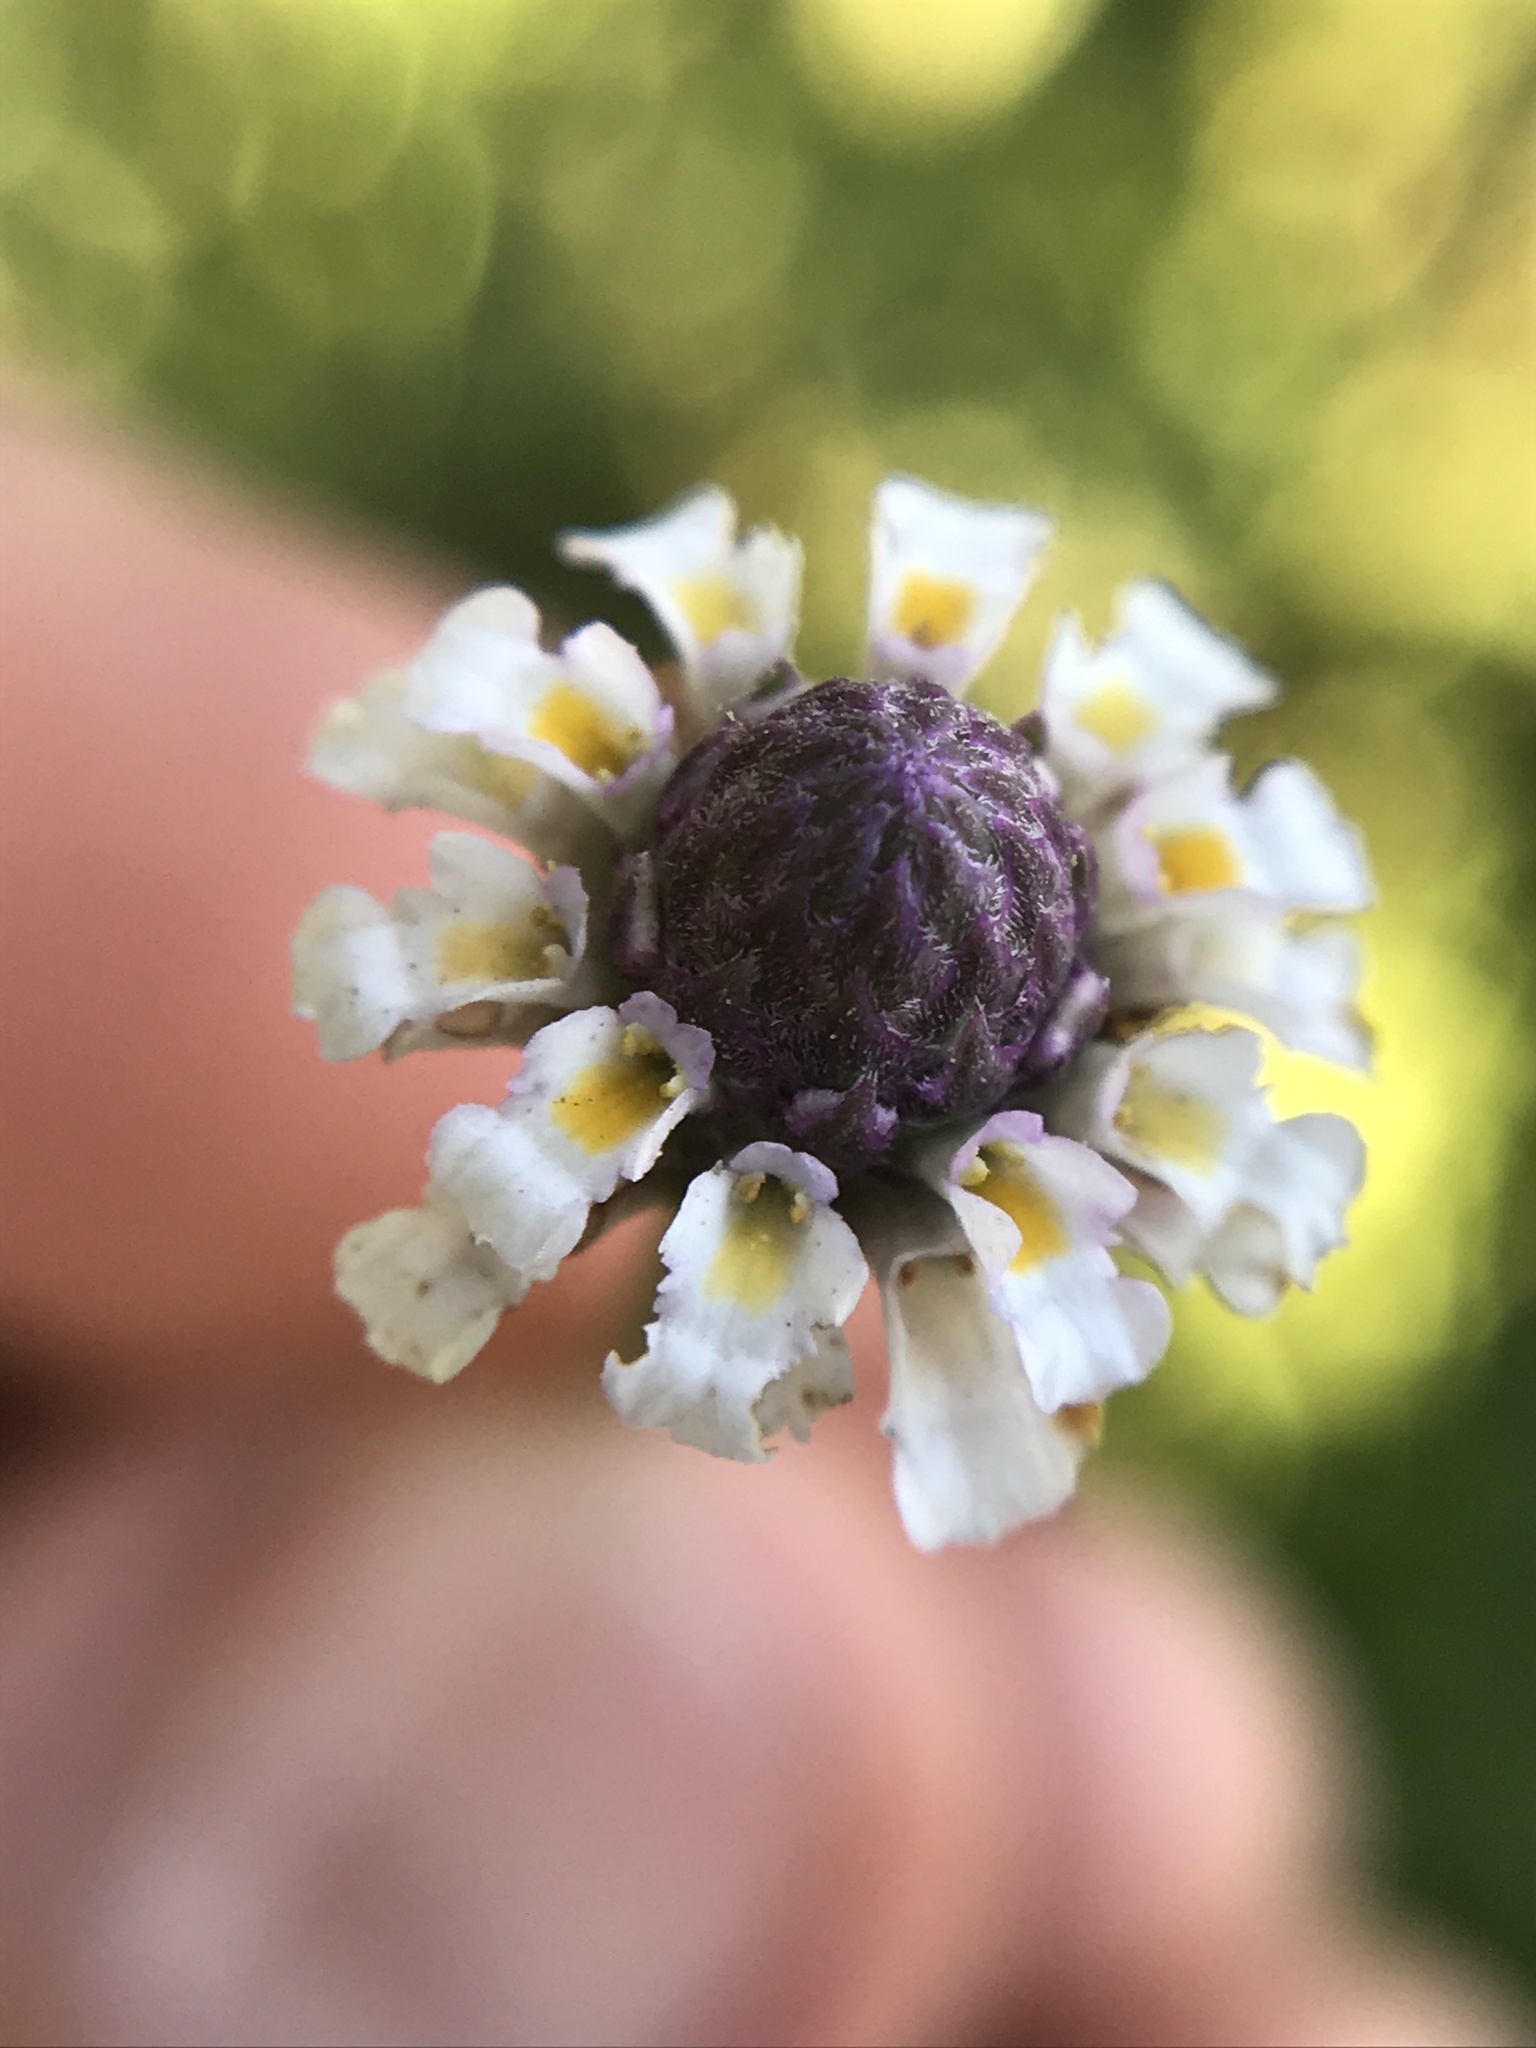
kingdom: Plantae
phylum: Tracheophyta
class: Magnoliopsida
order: Lamiales
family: Verbenaceae
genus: Phyla
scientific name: Phyla nodiflora
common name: Frogfruit
